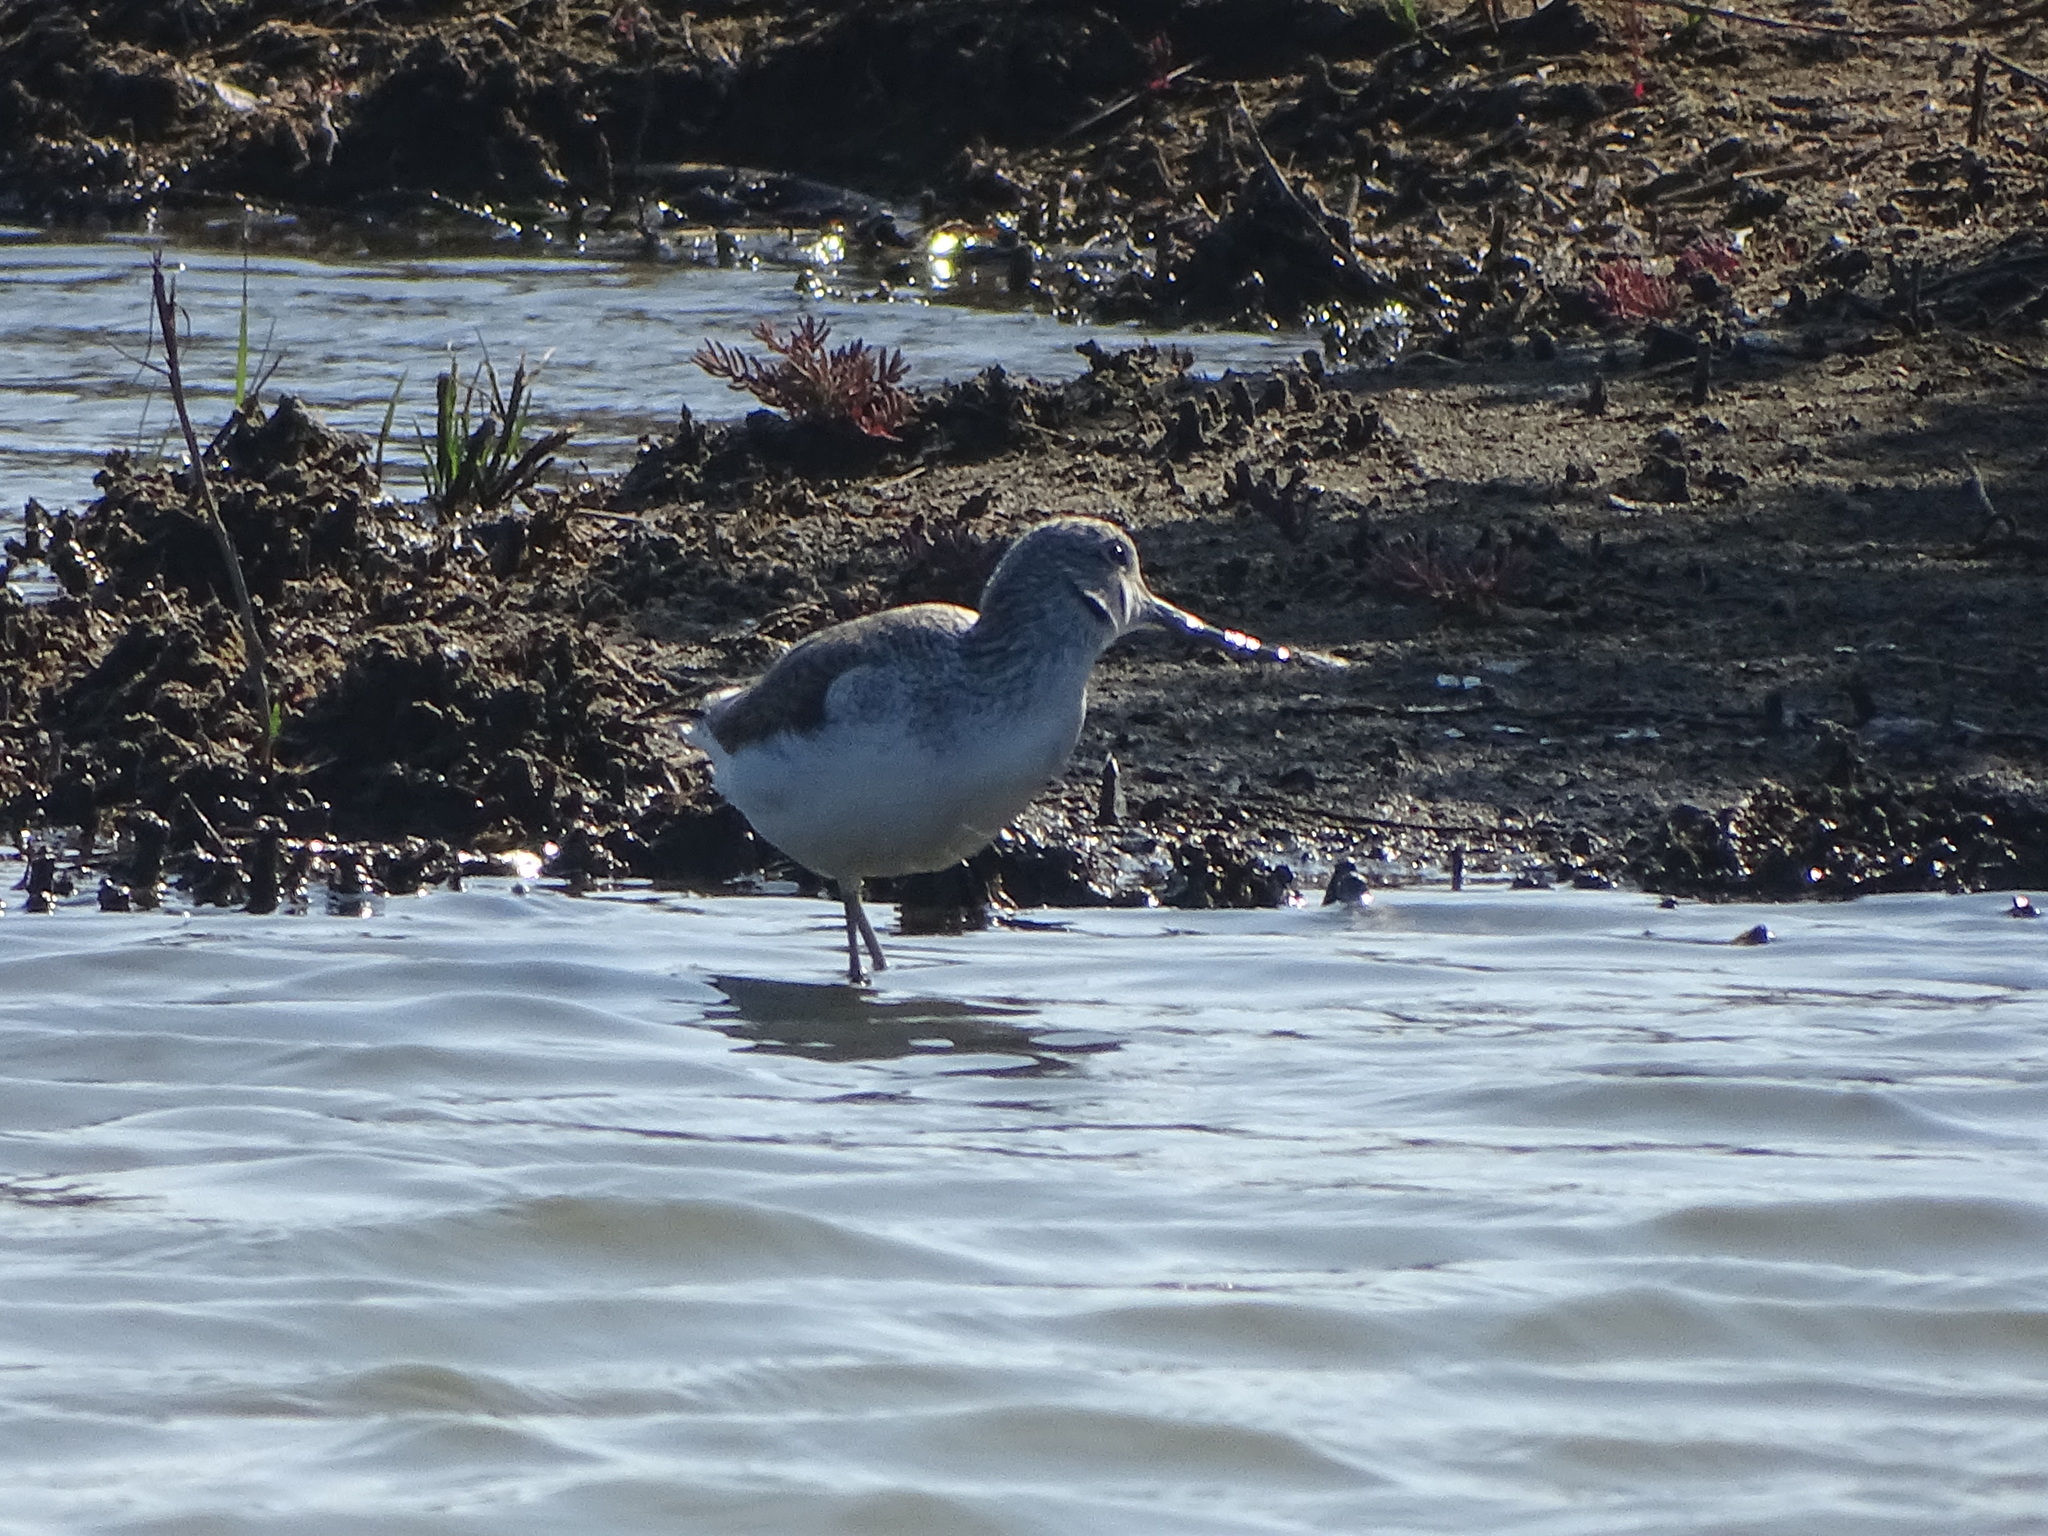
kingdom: Animalia
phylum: Chordata
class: Aves
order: Charadriiformes
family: Scolopacidae
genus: Tringa
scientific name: Tringa nebularia
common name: Common greenshank
